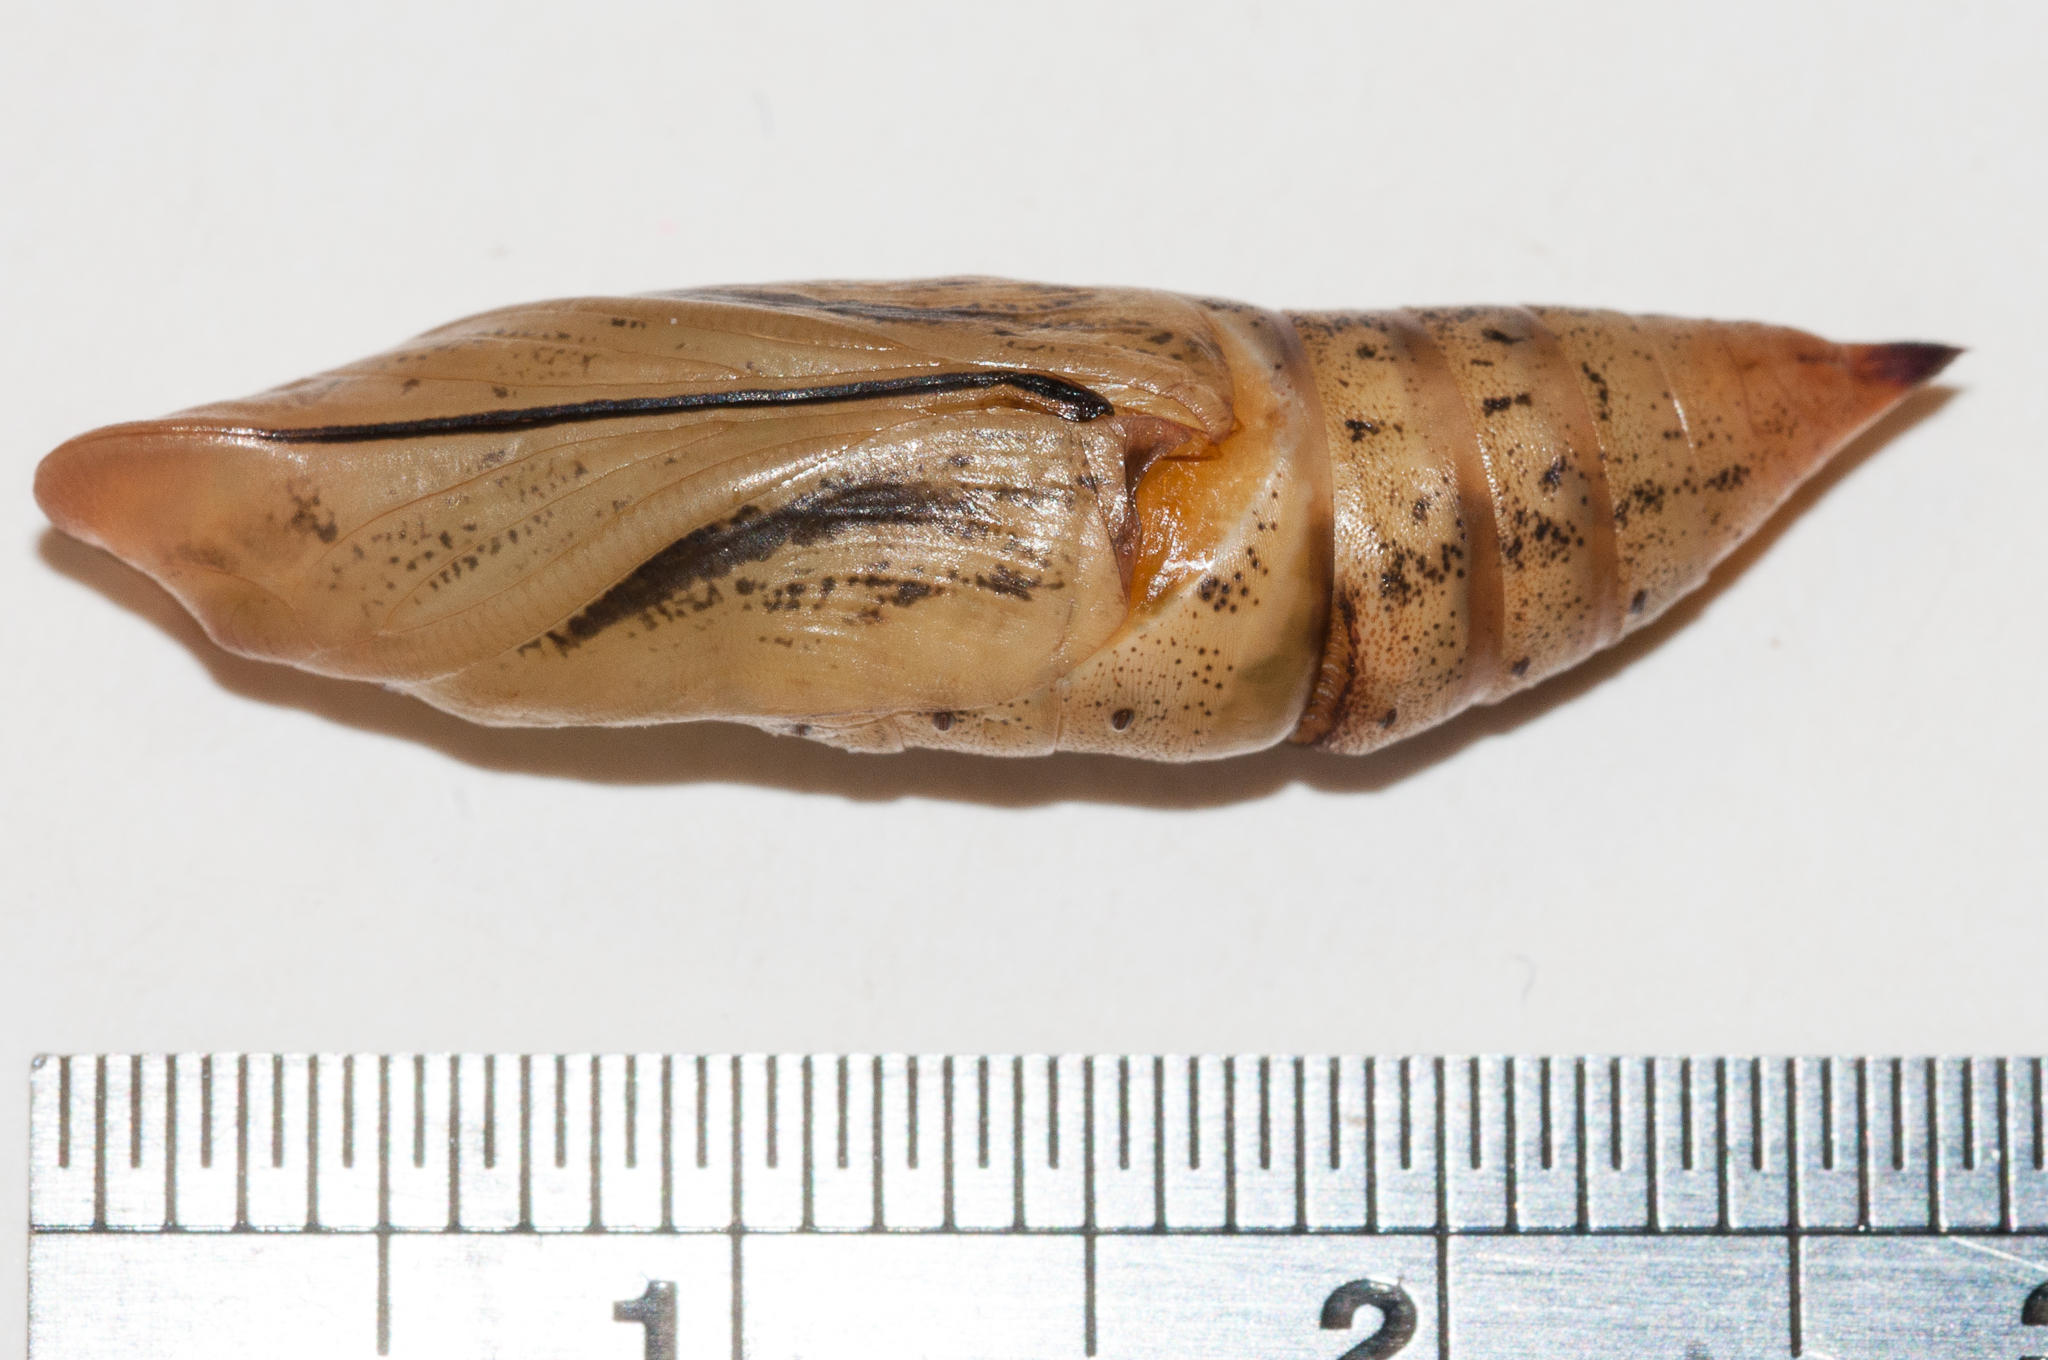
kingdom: Animalia
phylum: Arthropoda
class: Insecta
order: Lepidoptera
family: Sphingidae
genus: Macroglossum
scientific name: Macroglossum trochilus
